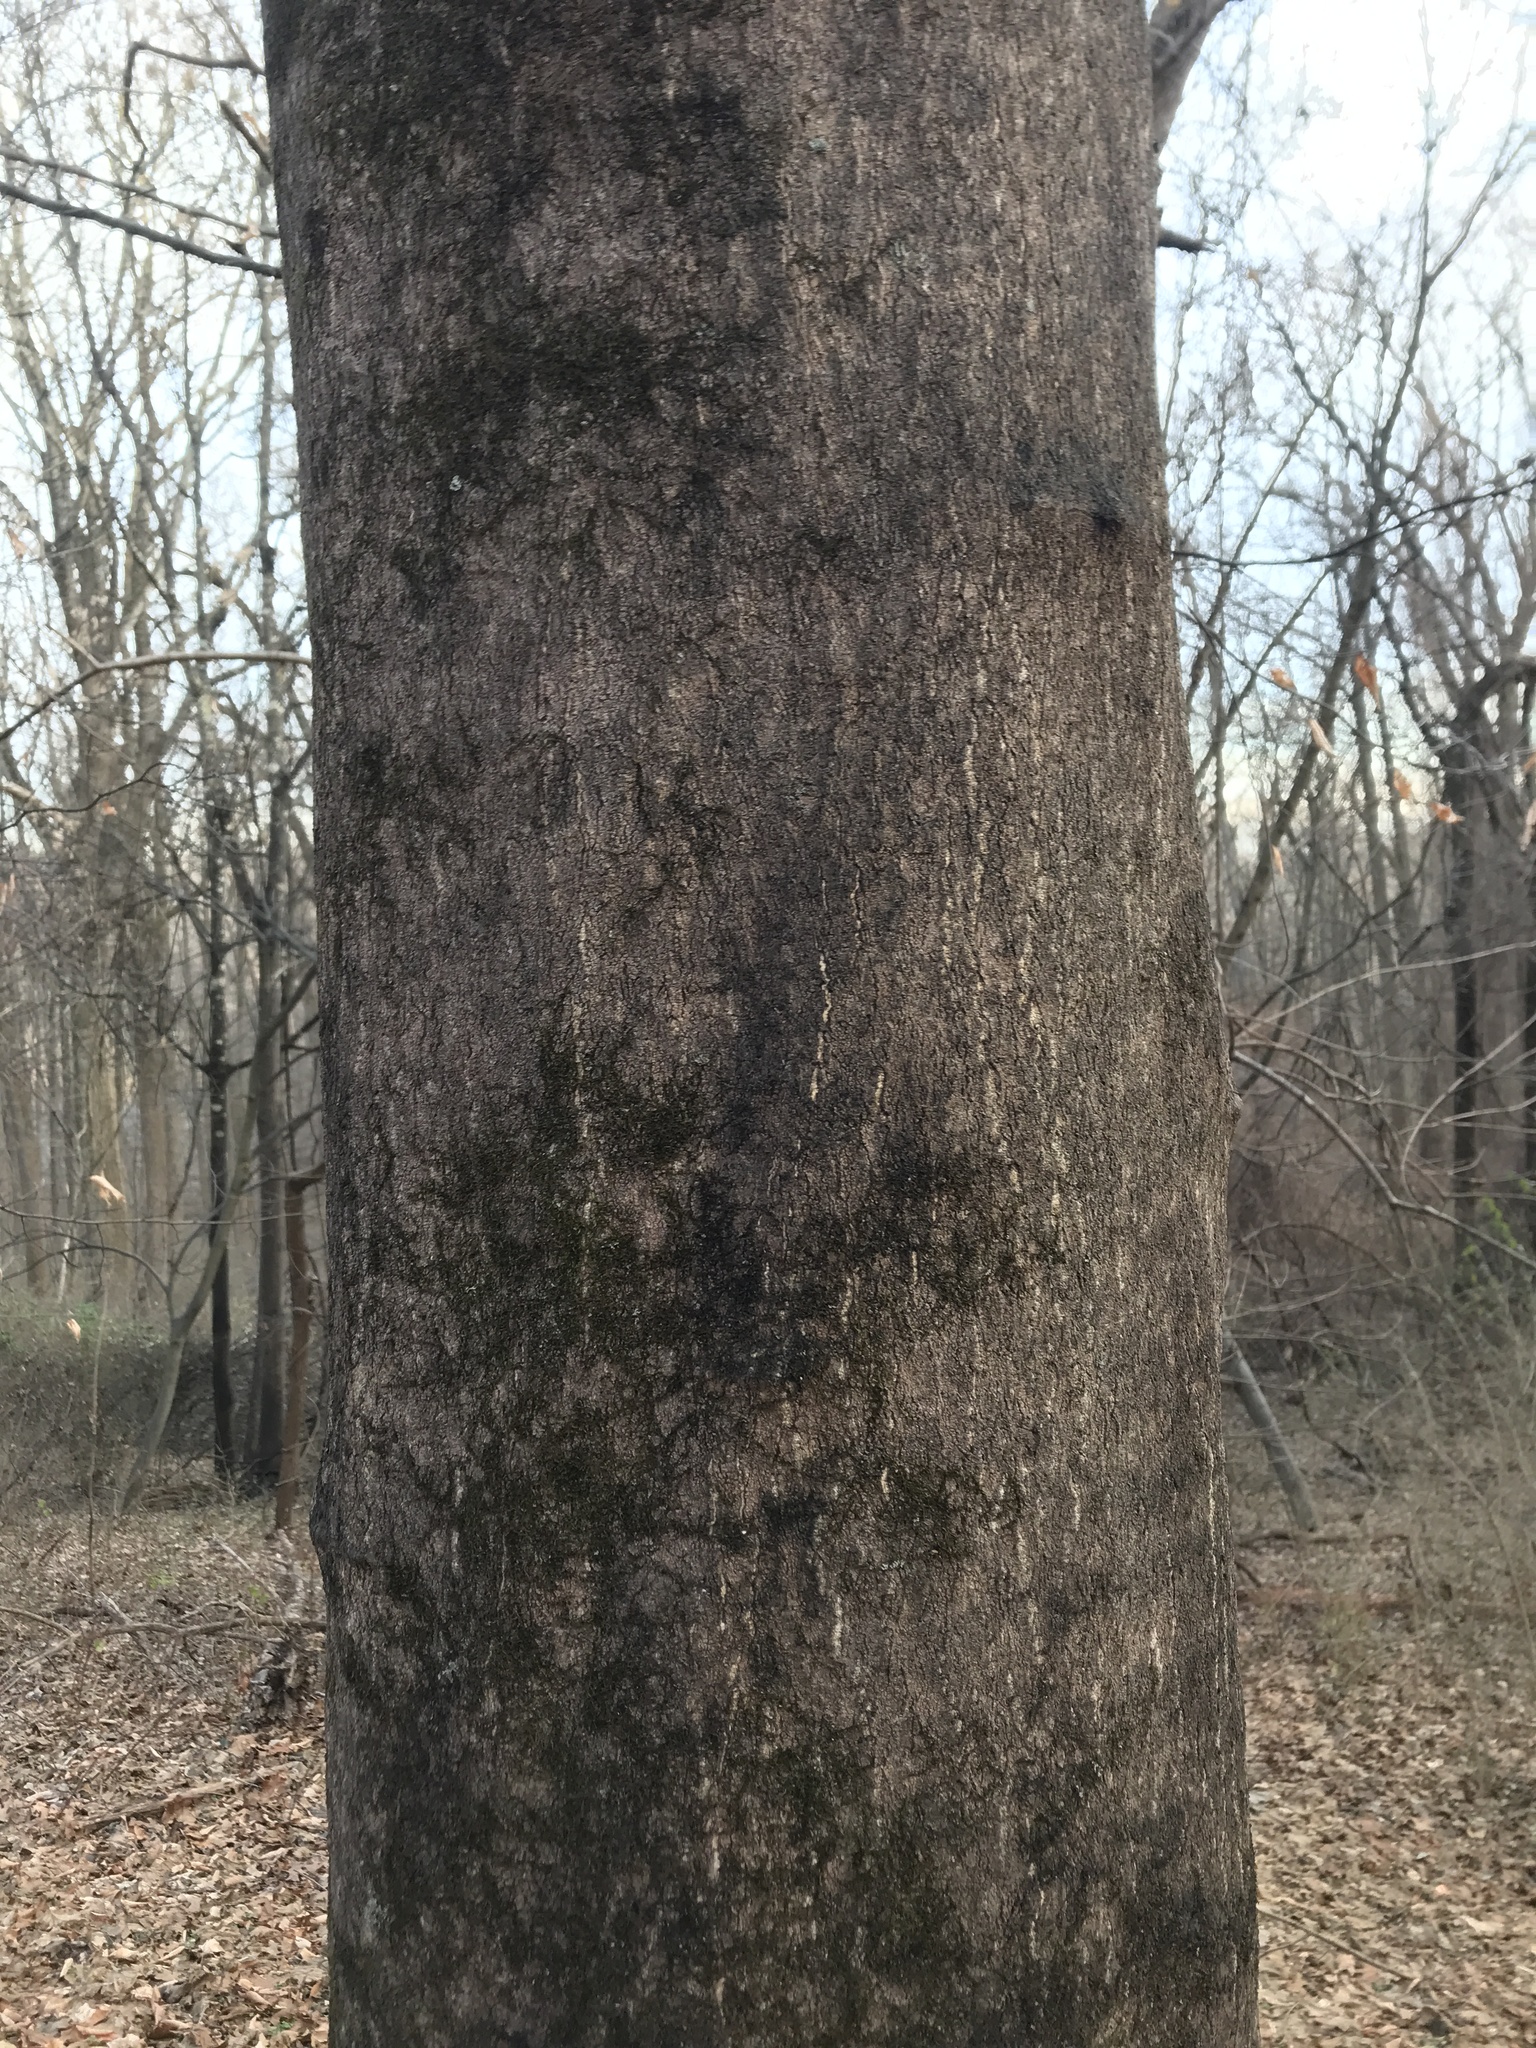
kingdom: Plantae
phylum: Tracheophyta
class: Magnoliopsida
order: Sapindales
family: Simaroubaceae
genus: Ailanthus
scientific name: Ailanthus altissima
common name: Tree-of-heaven
